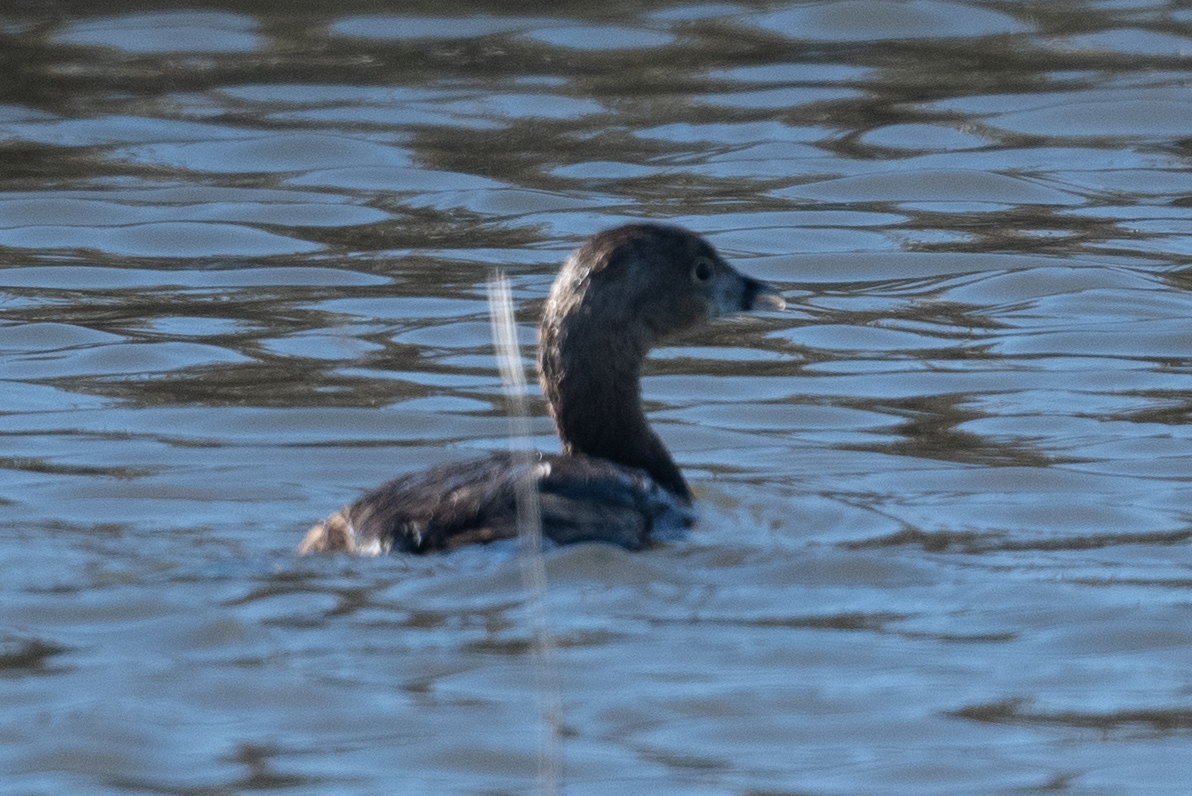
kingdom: Animalia
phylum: Chordata
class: Aves
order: Podicipediformes
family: Podicipedidae
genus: Podilymbus
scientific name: Podilymbus podiceps
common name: Pied-billed grebe
